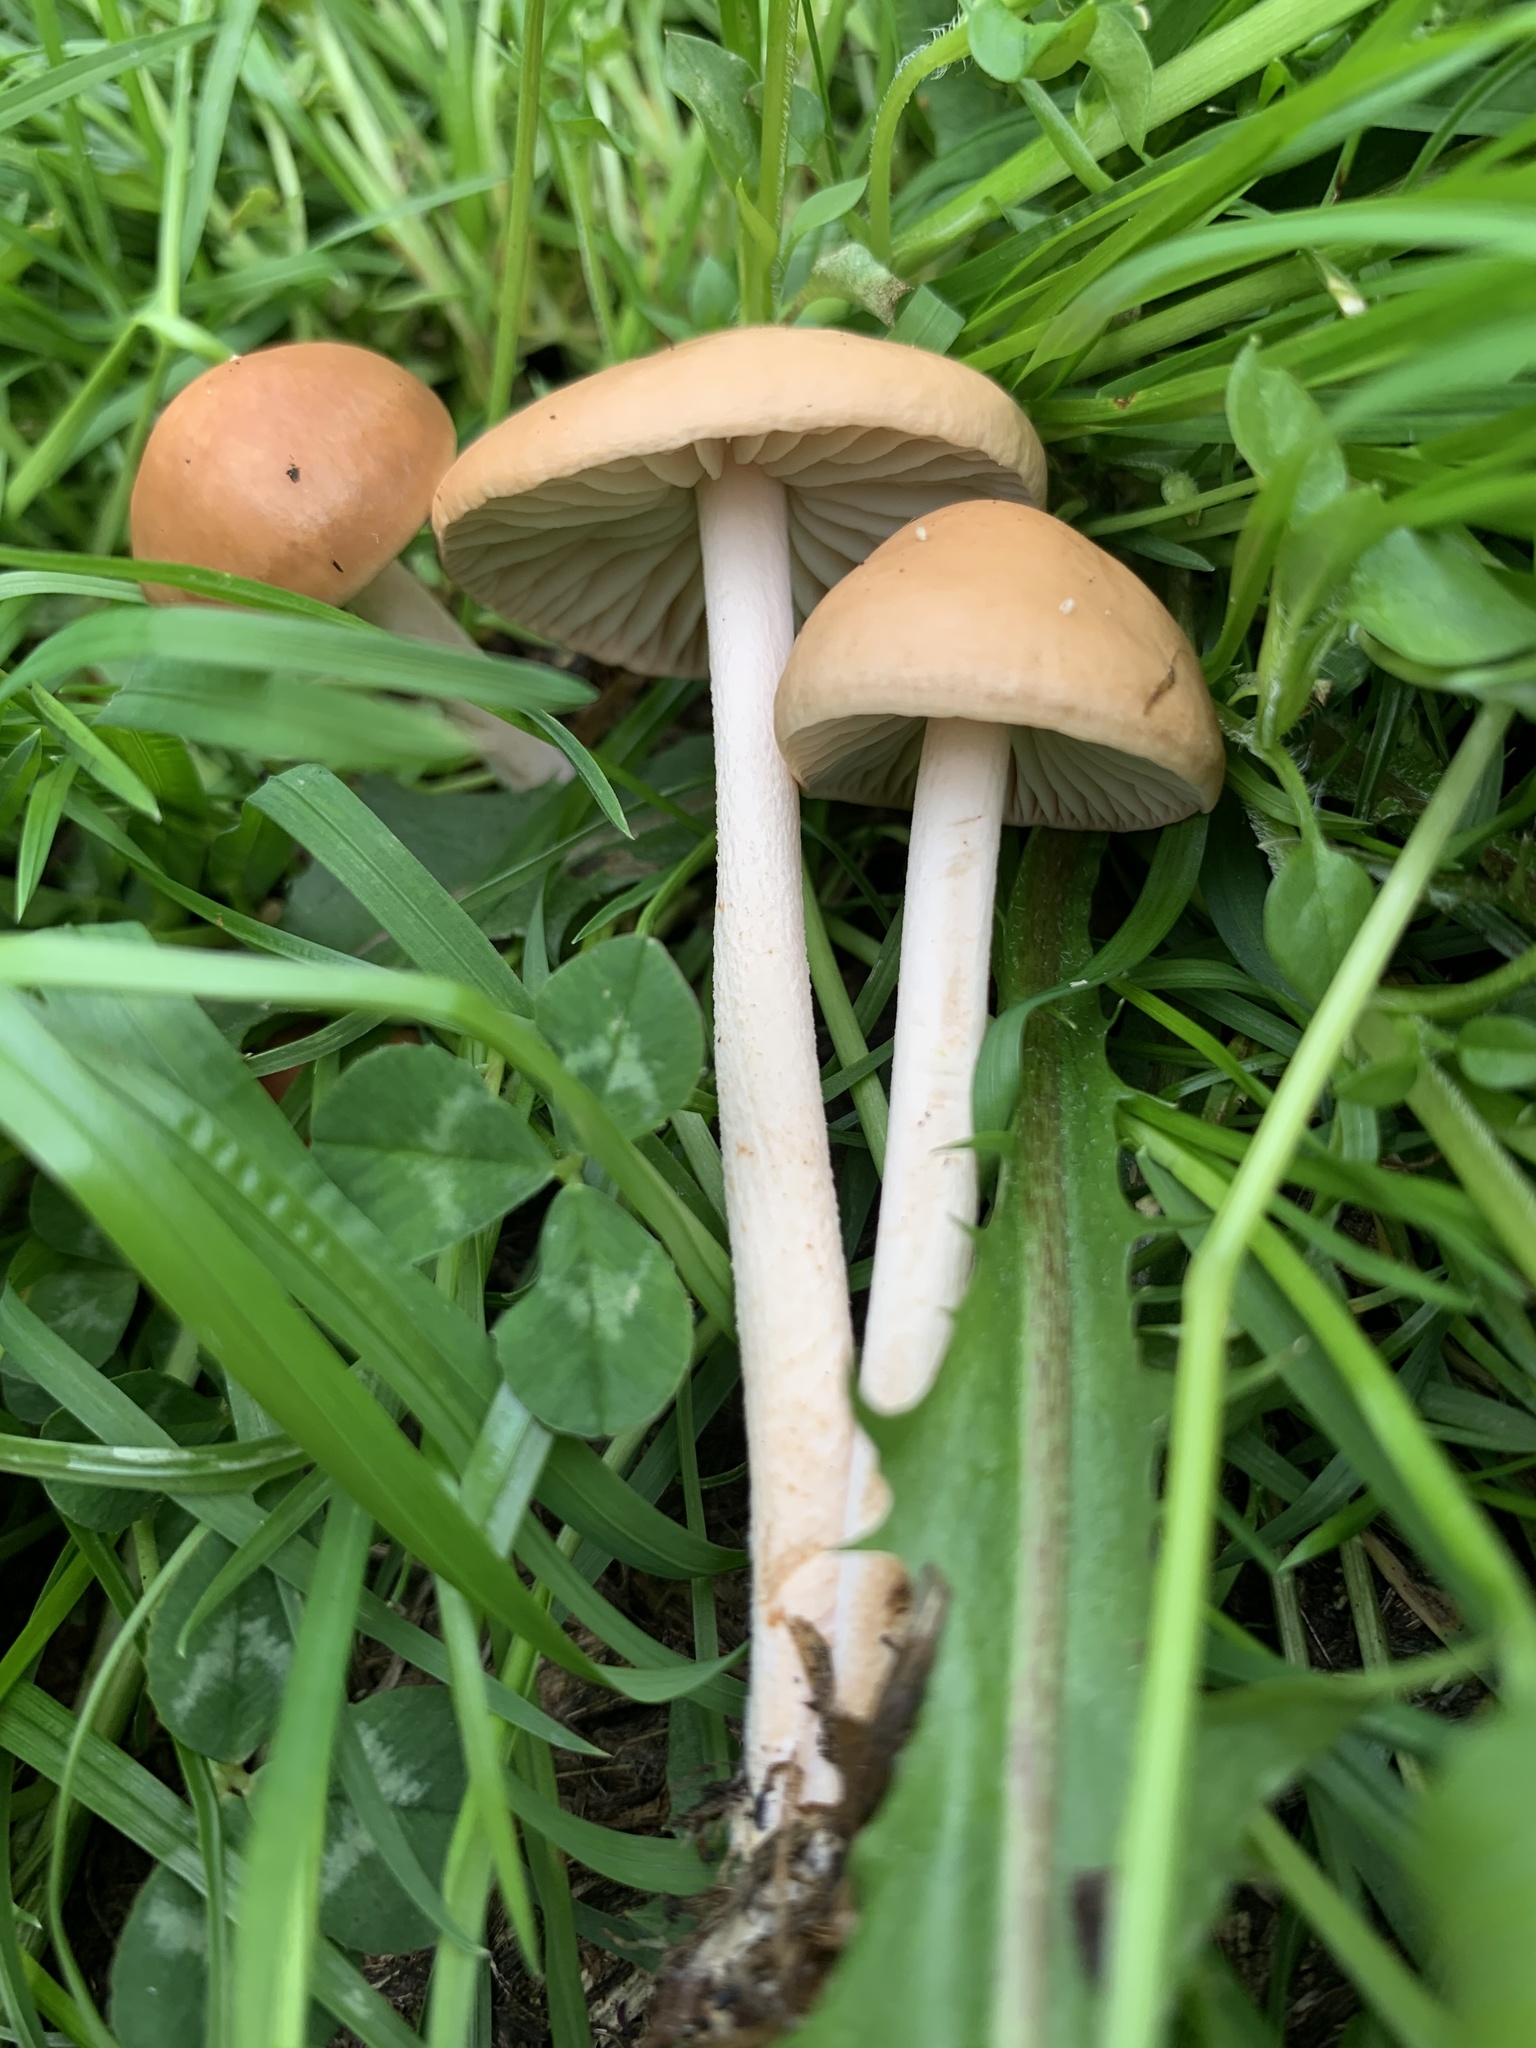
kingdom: Fungi
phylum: Basidiomycota
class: Agaricomycetes
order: Agaricales
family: Marasmiaceae
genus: Marasmius
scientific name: Marasmius oreades
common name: Fairy ring champignon
